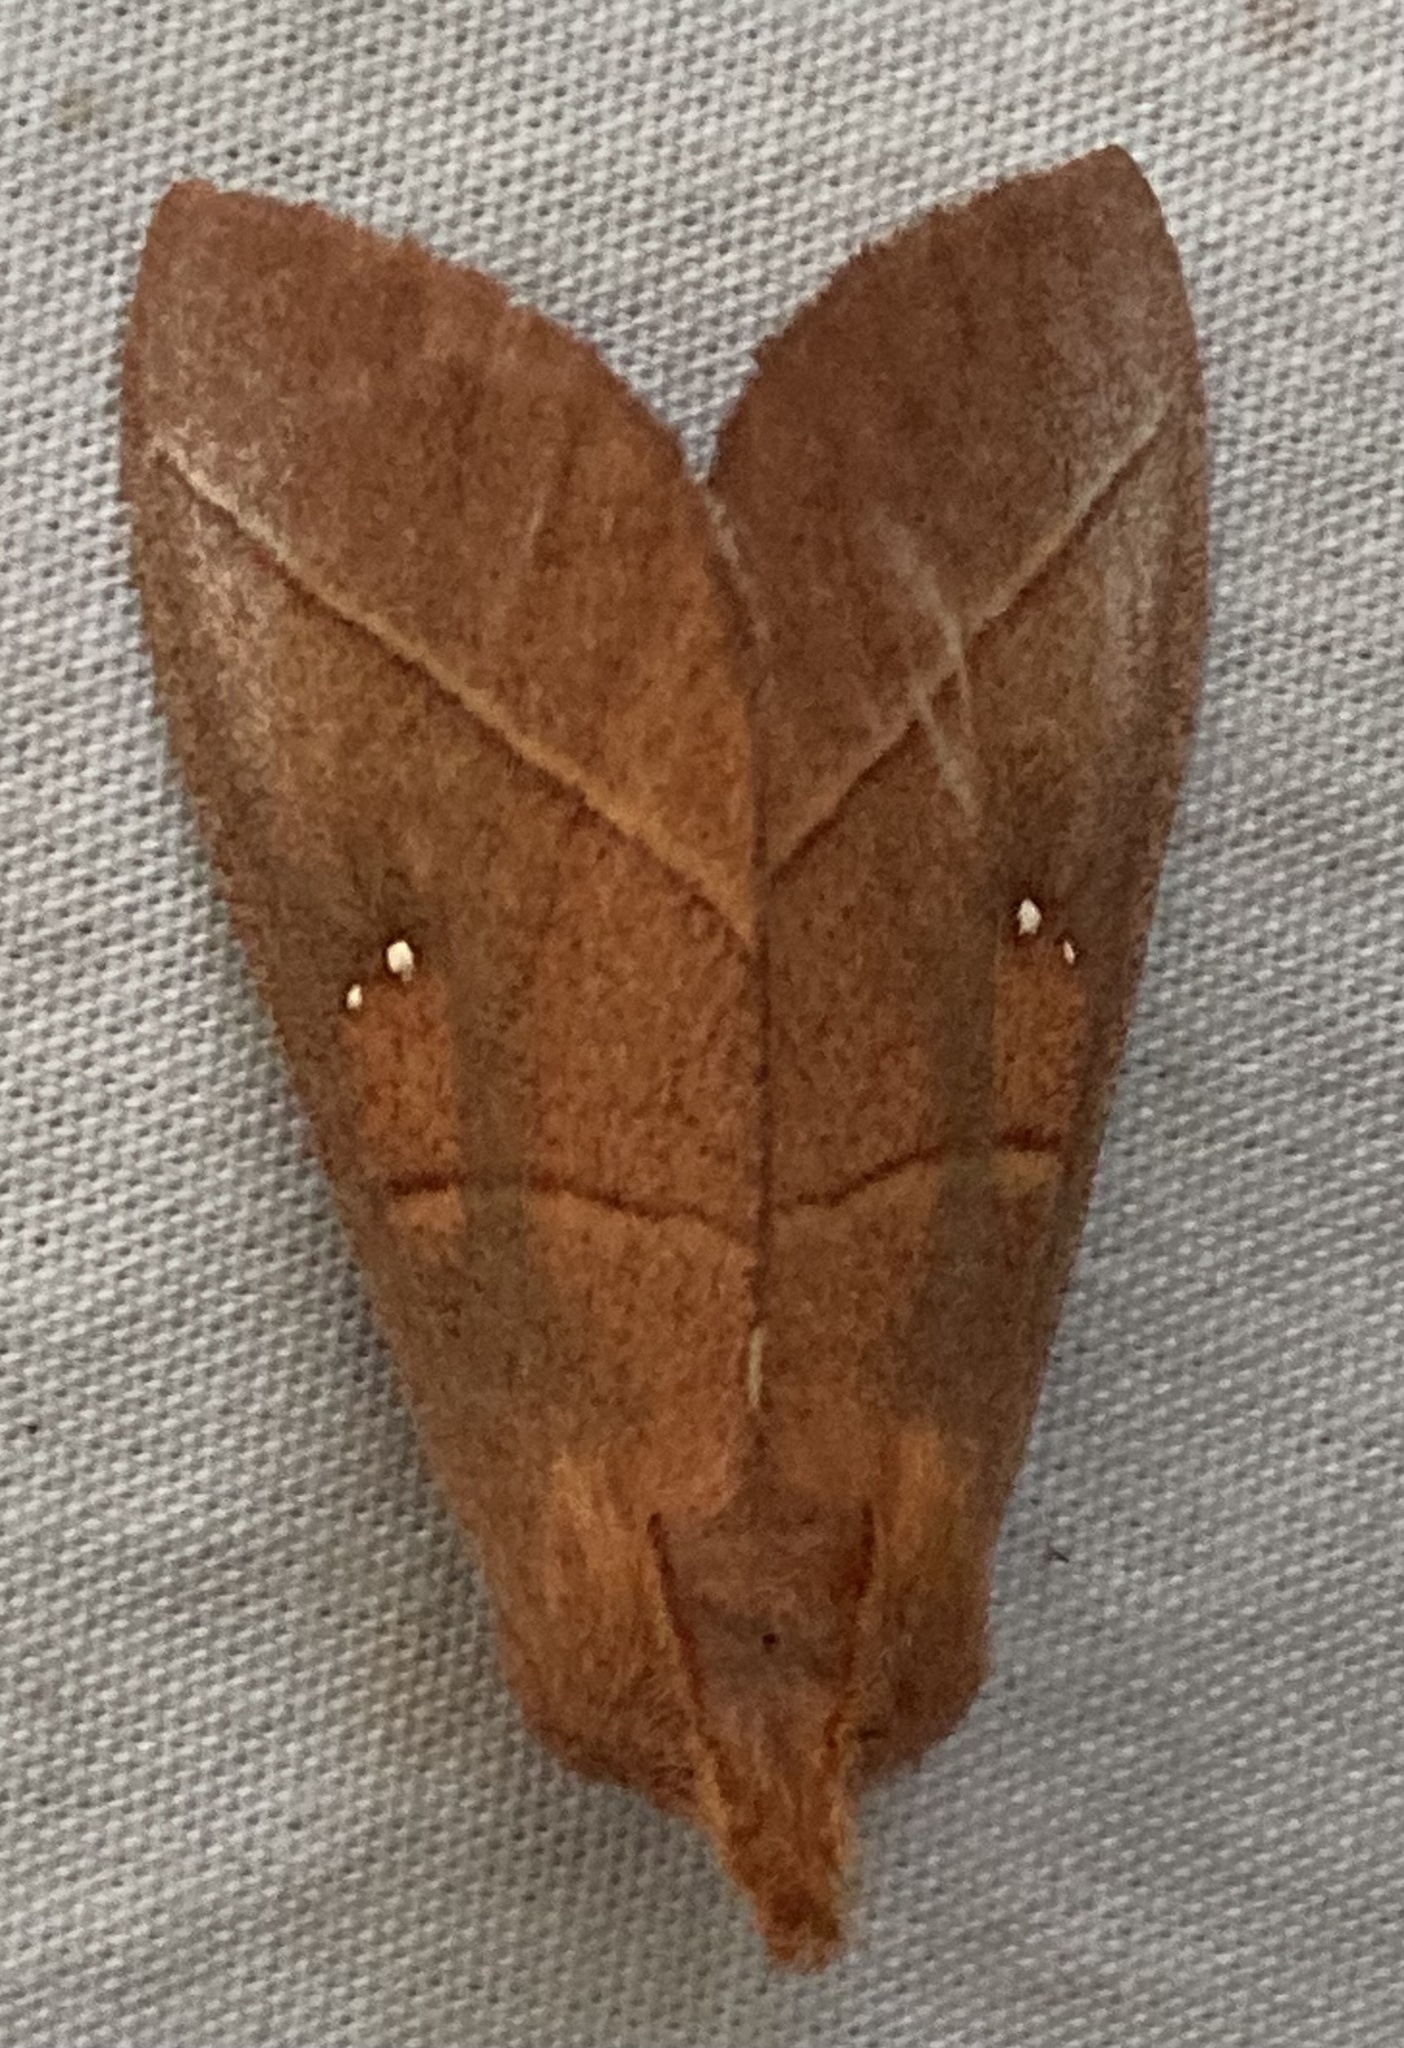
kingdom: Animalia
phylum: Arthropoda
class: Insecta
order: Lepidoptera
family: Notodontidae
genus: Nadata
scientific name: Nadata gibbosa
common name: White-dotted prominent
